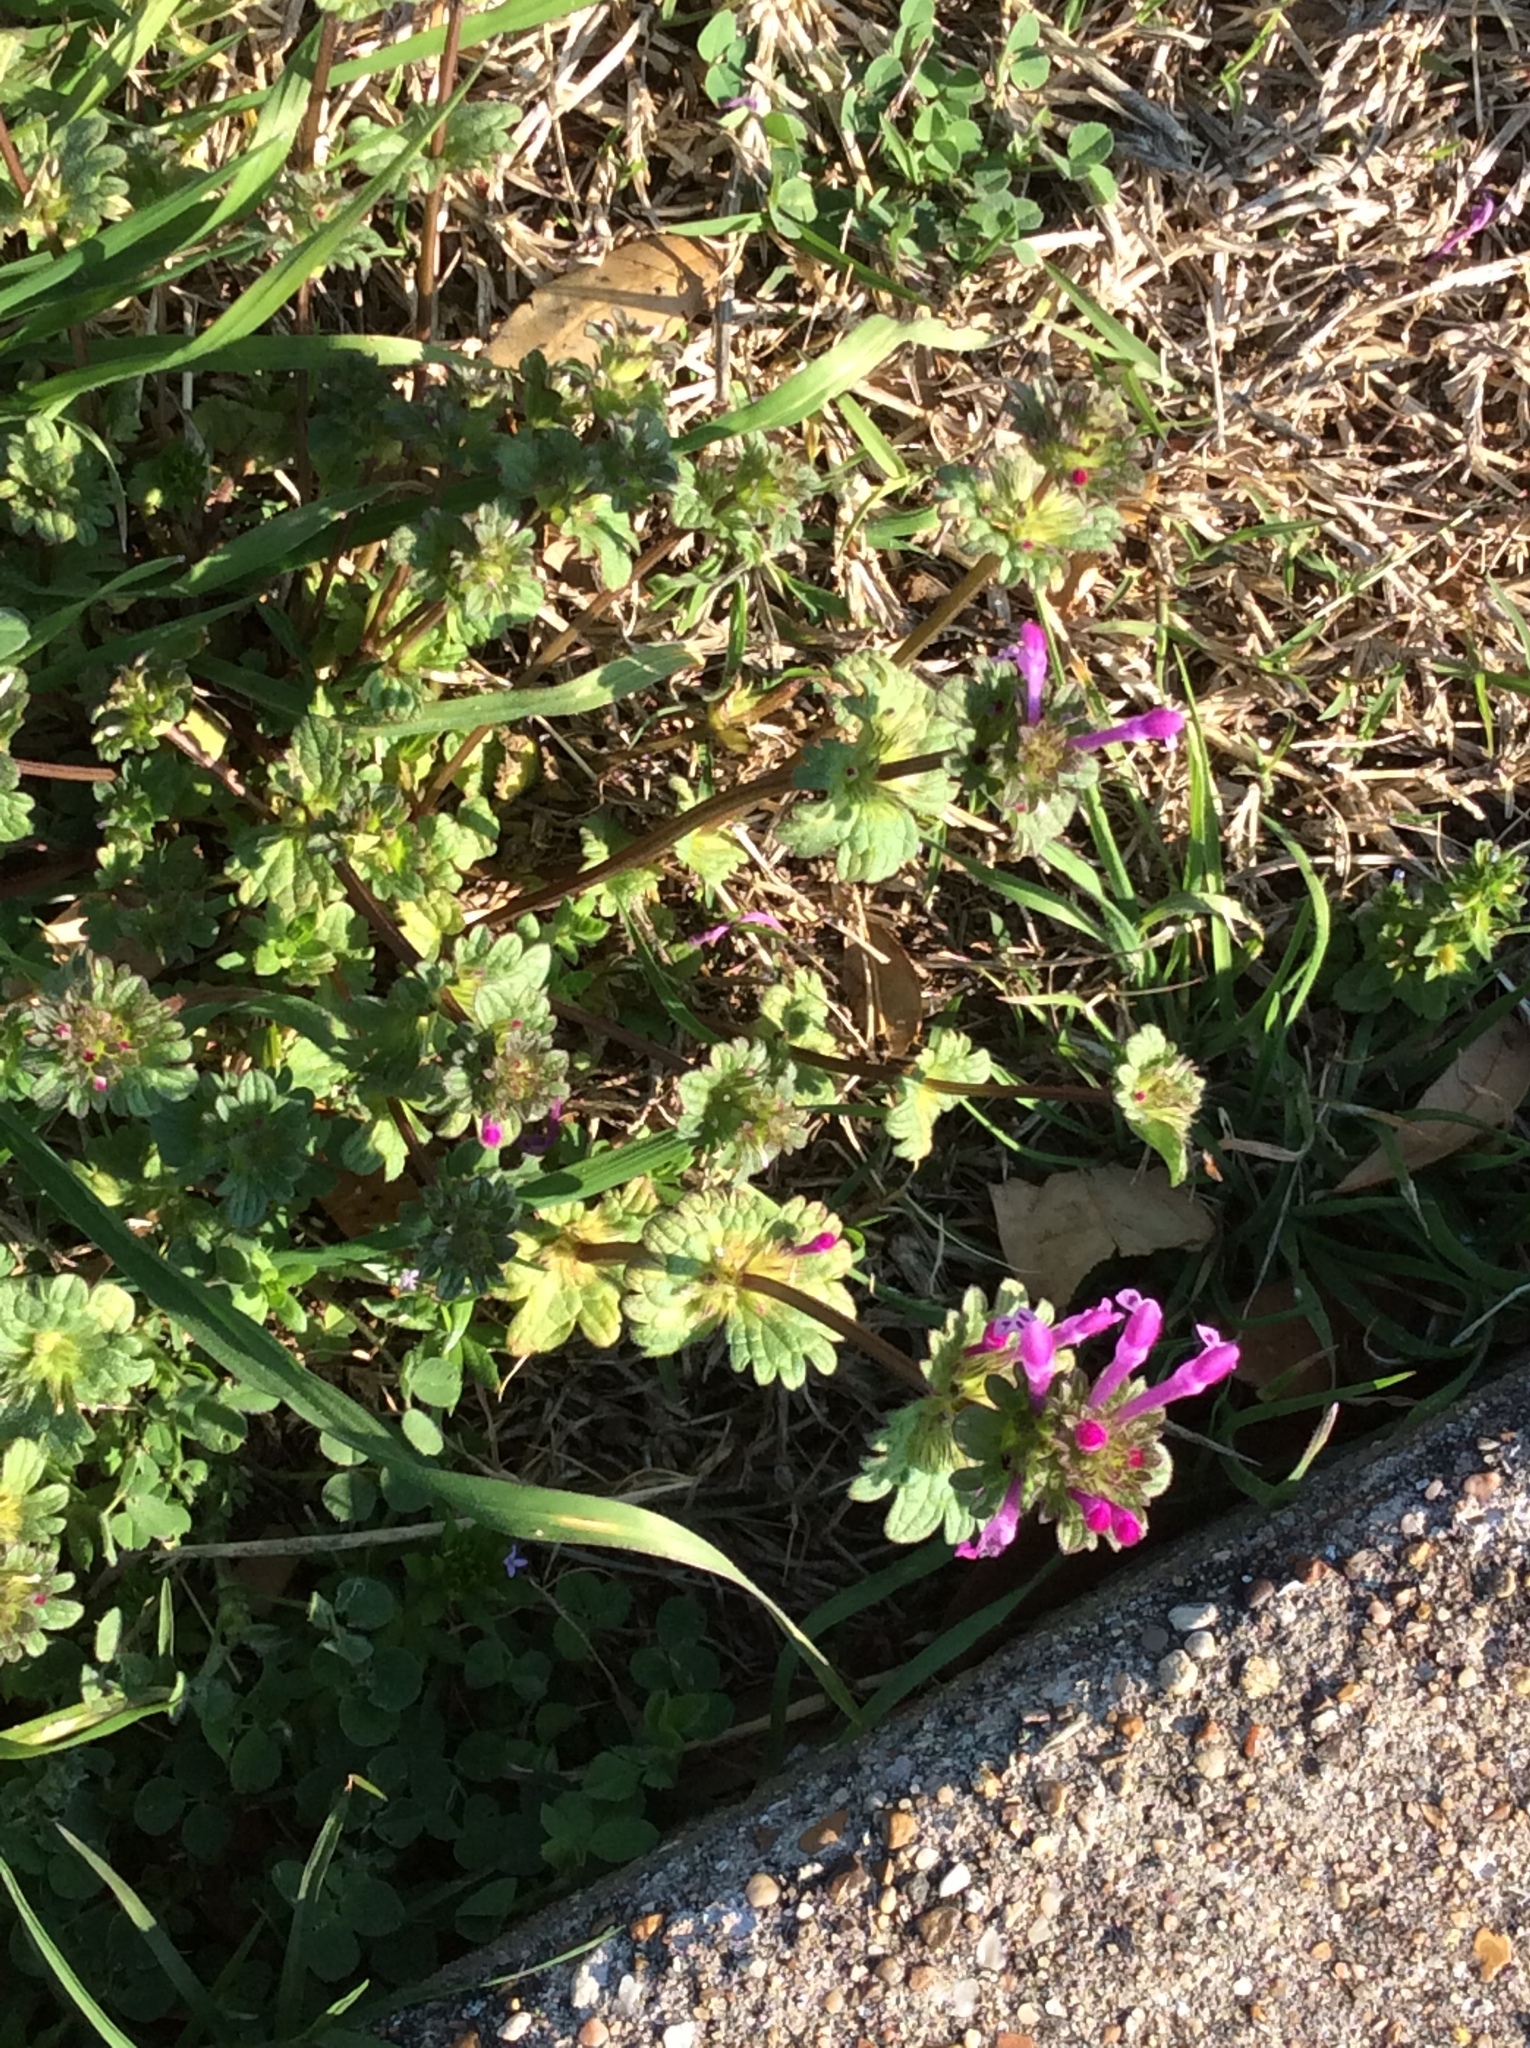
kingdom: Plantae
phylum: Tracheophyta
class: Magnoliopsida
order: Lamiales
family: Lamiaceae
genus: Lamium
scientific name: Lamium amplexicaule
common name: Henbit dead-nettle
